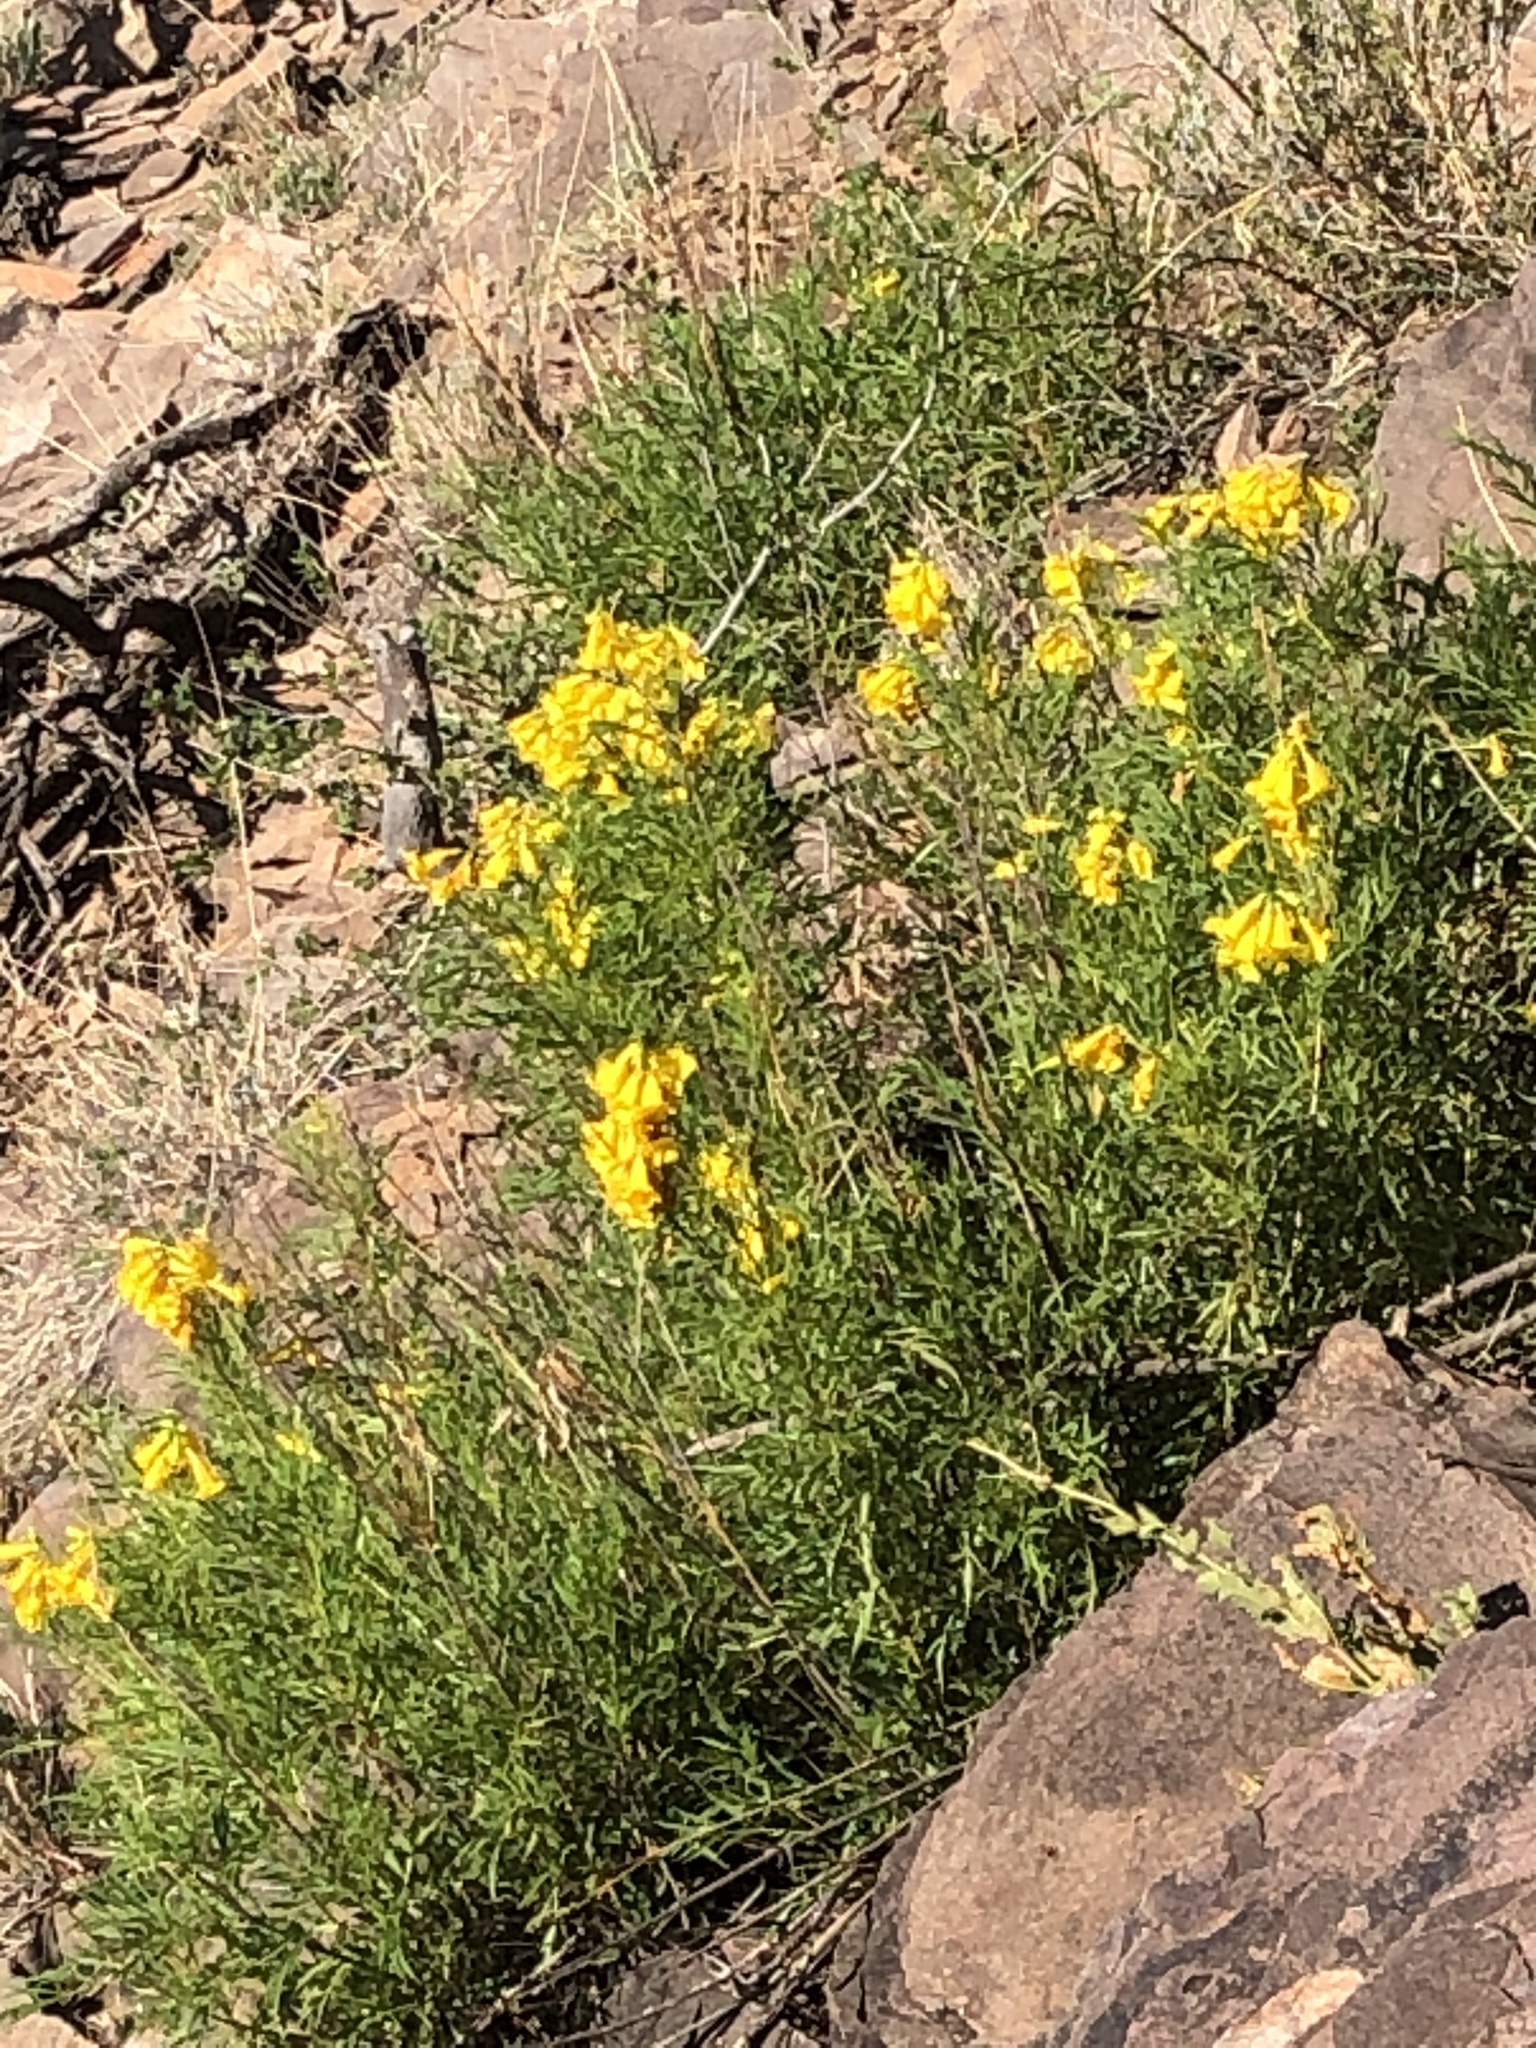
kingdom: Plantae
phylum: Tracheophyta
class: Magnoliopsida
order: Lamiales
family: Bignoniaceae
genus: Tecoma
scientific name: Tecoma stans
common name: Yellow trumpetbush
